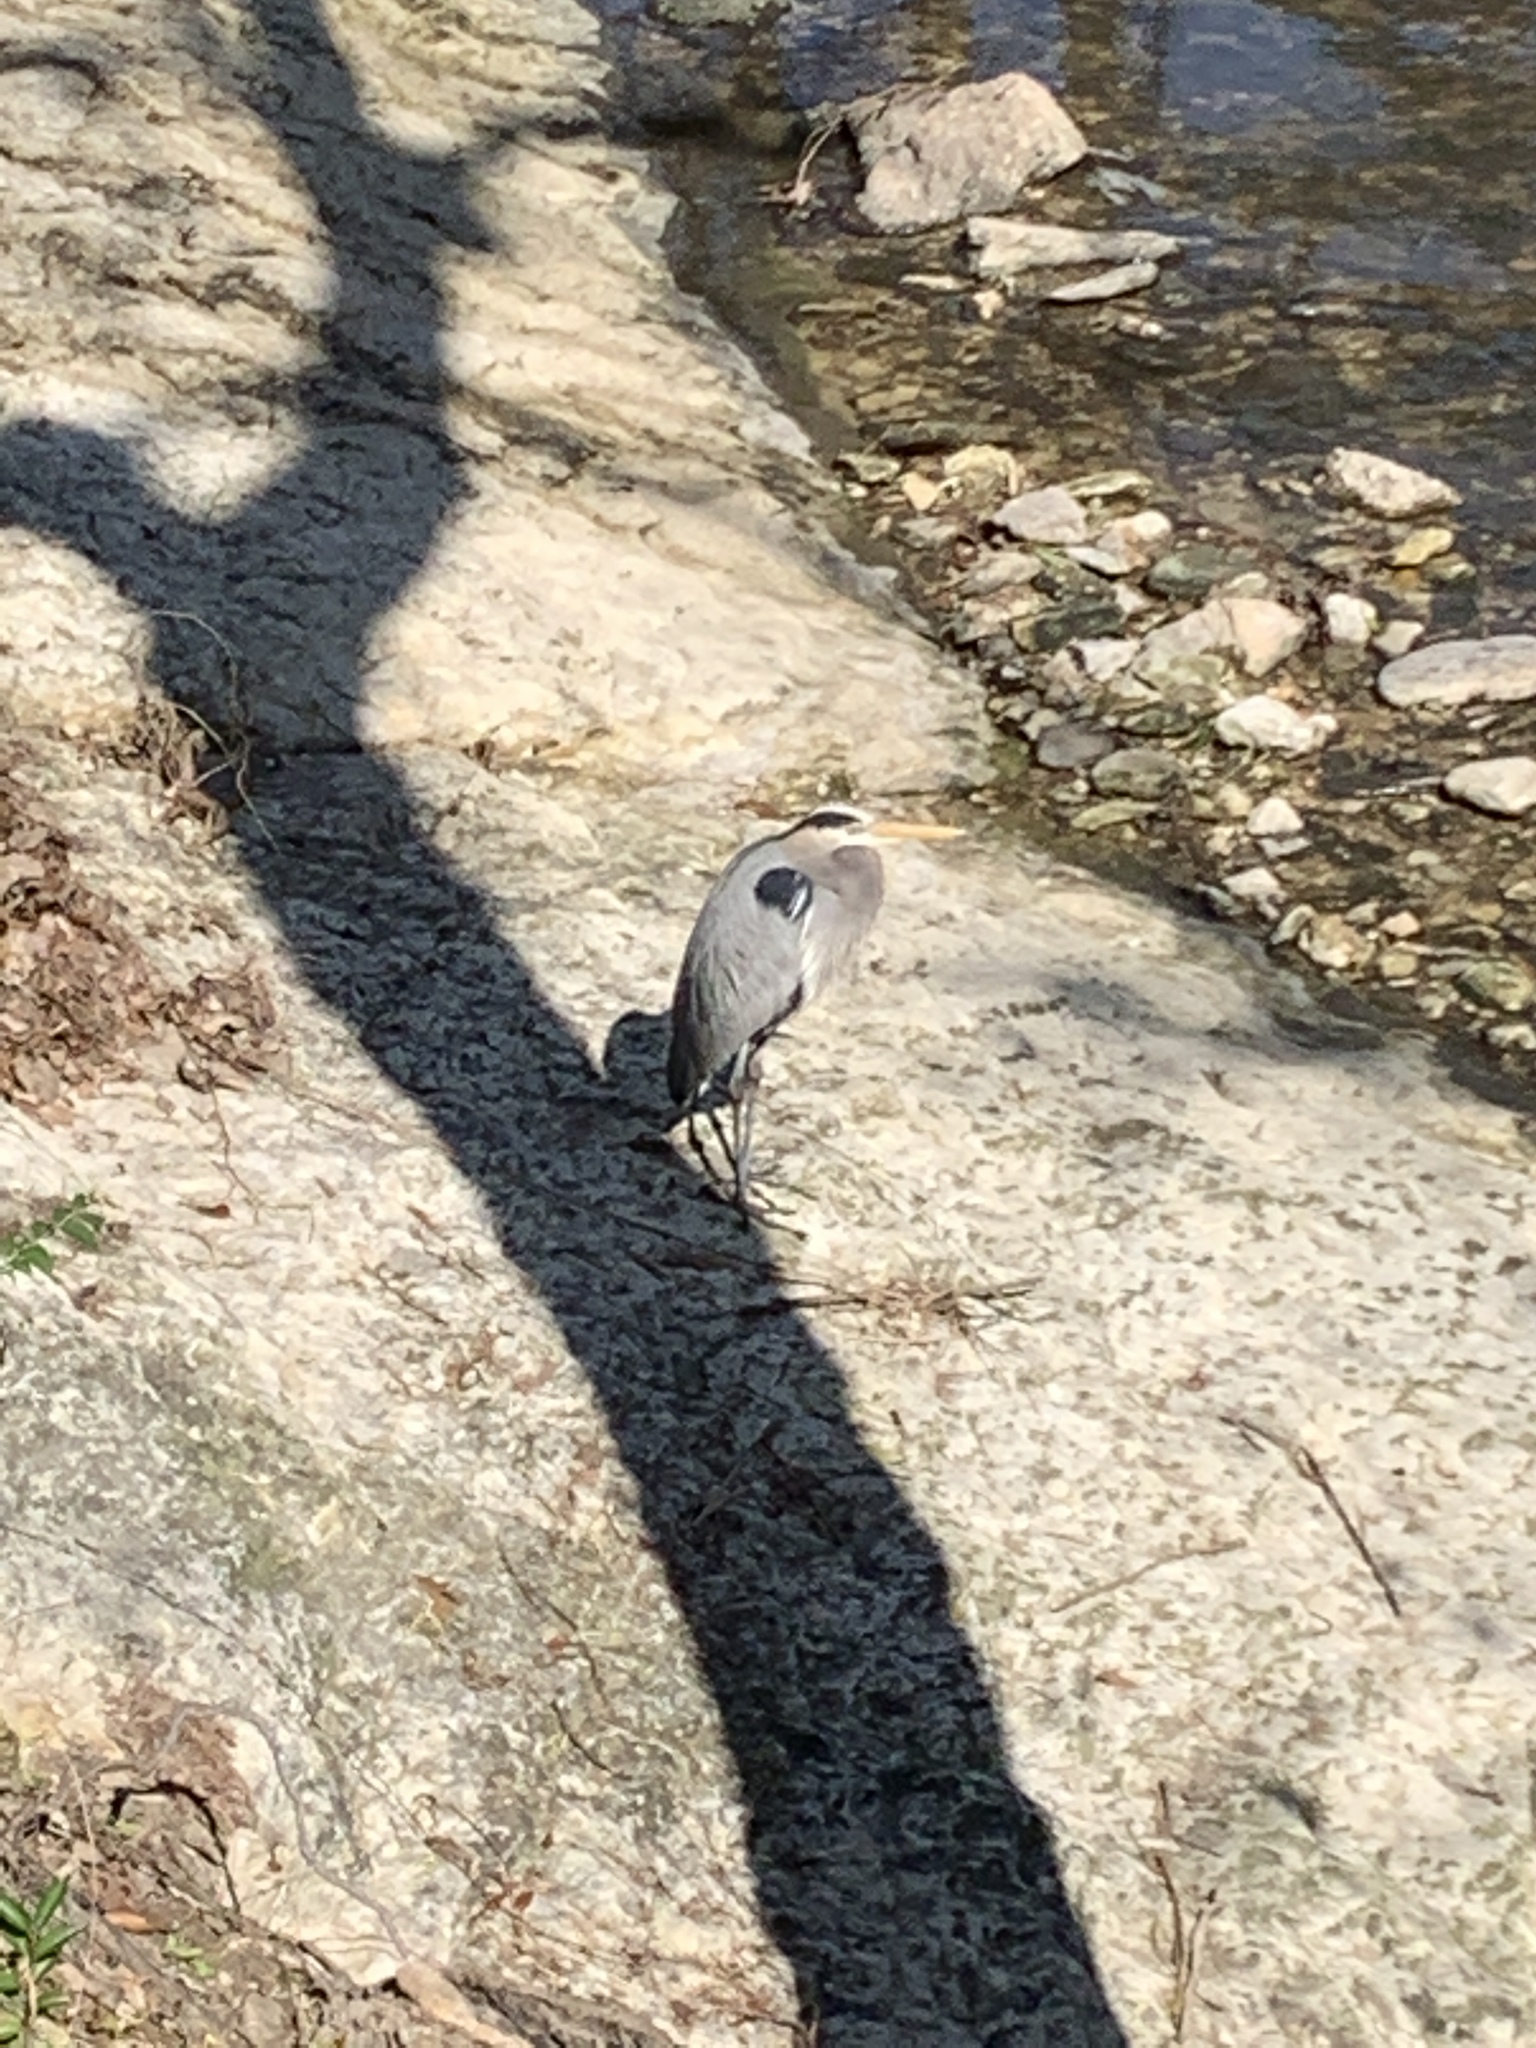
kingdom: Animalia
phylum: Chordata
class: Aves
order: Pelecaniformes
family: Ardeidae
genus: Ardea
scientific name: Ardea herodias
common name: Great blue heron
